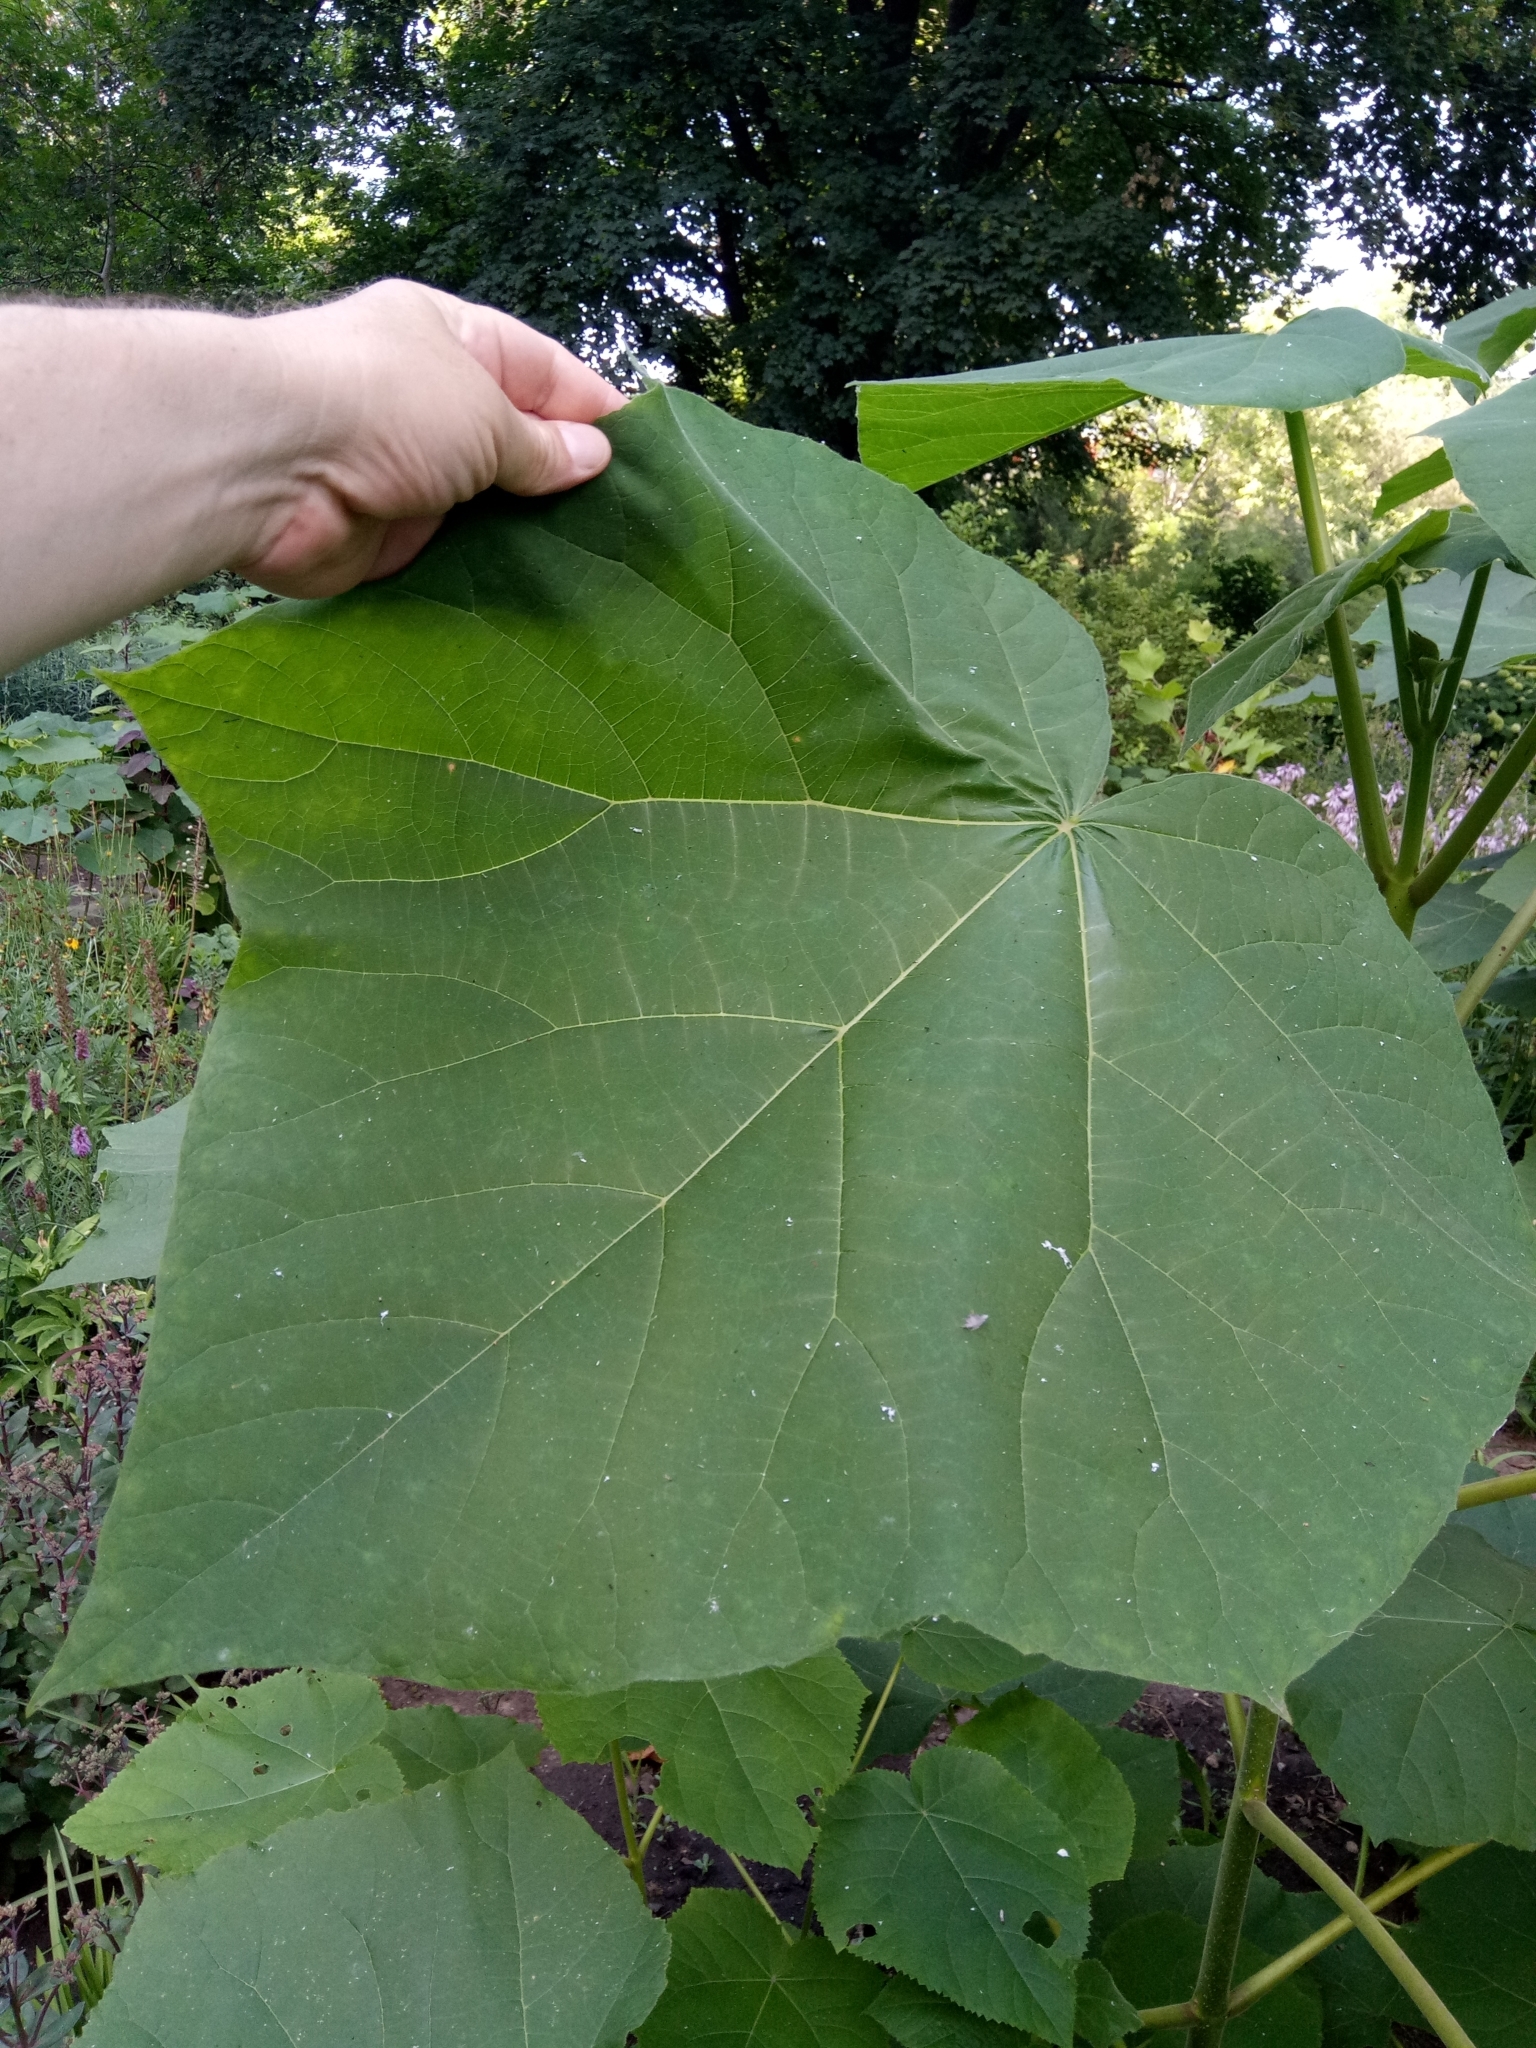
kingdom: Plantae
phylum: Tracheophyta
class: Magnoliopsida
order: Lamiales
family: Paulowniaceae
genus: Paulownia
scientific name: Paulownia tomentosa
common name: Foxglove-tree
